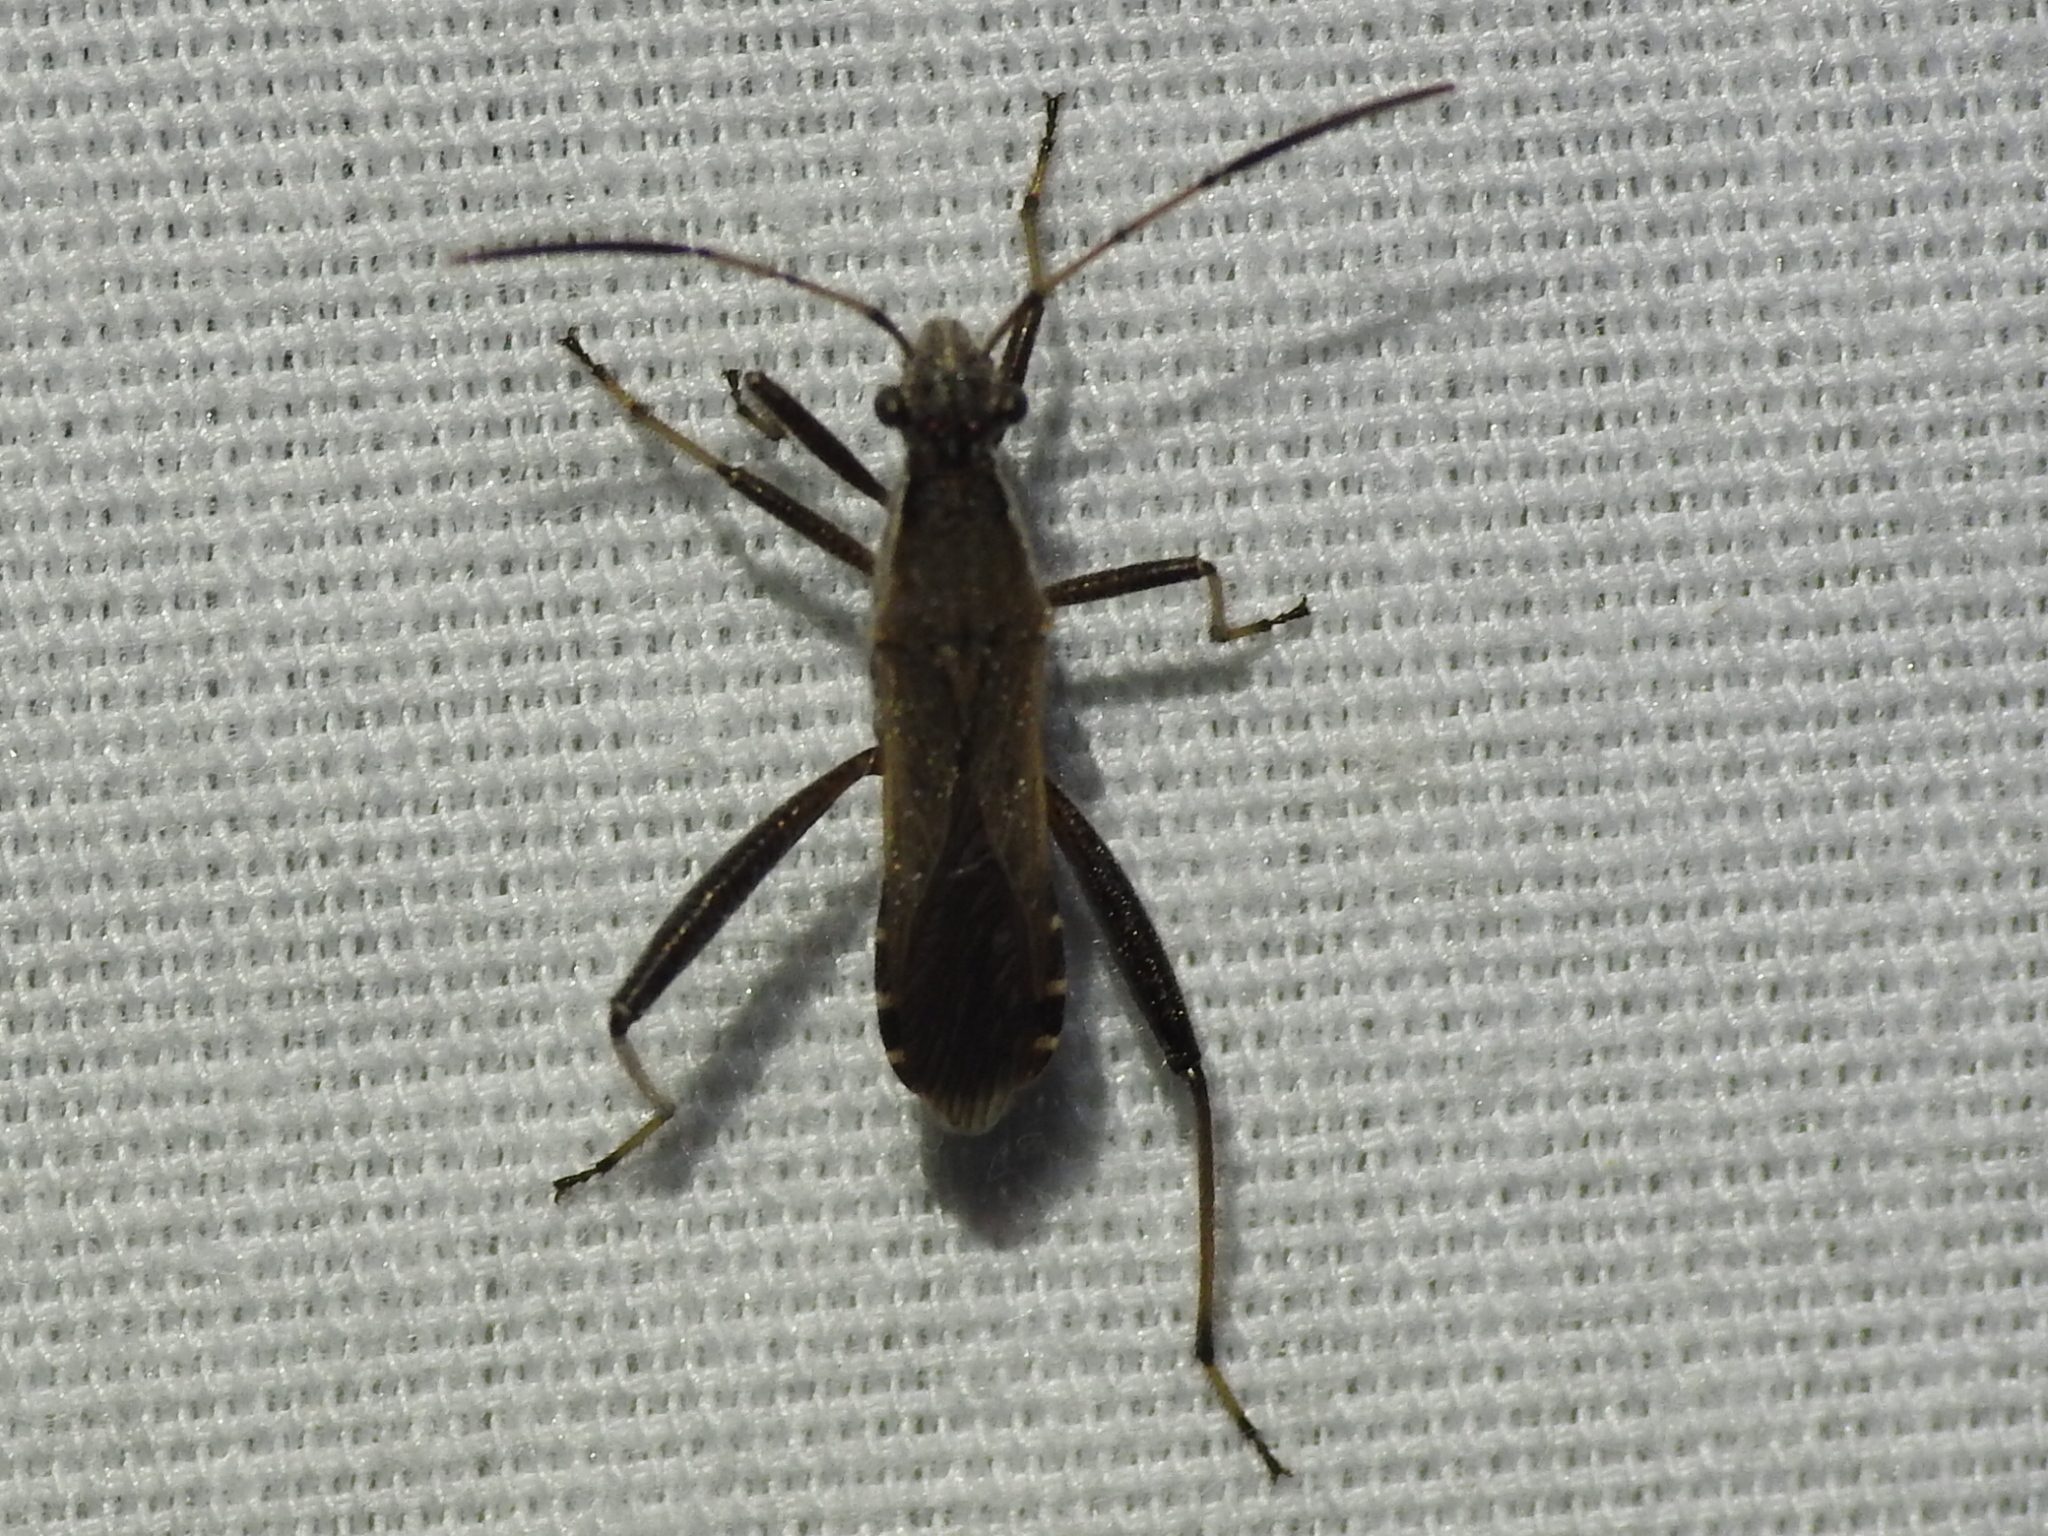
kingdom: Animalia
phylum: Arthropoda
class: Insecta
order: Hemiptera
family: Alydidae
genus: Alydus
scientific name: Alydus pilosulus
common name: Broad-headed bug
